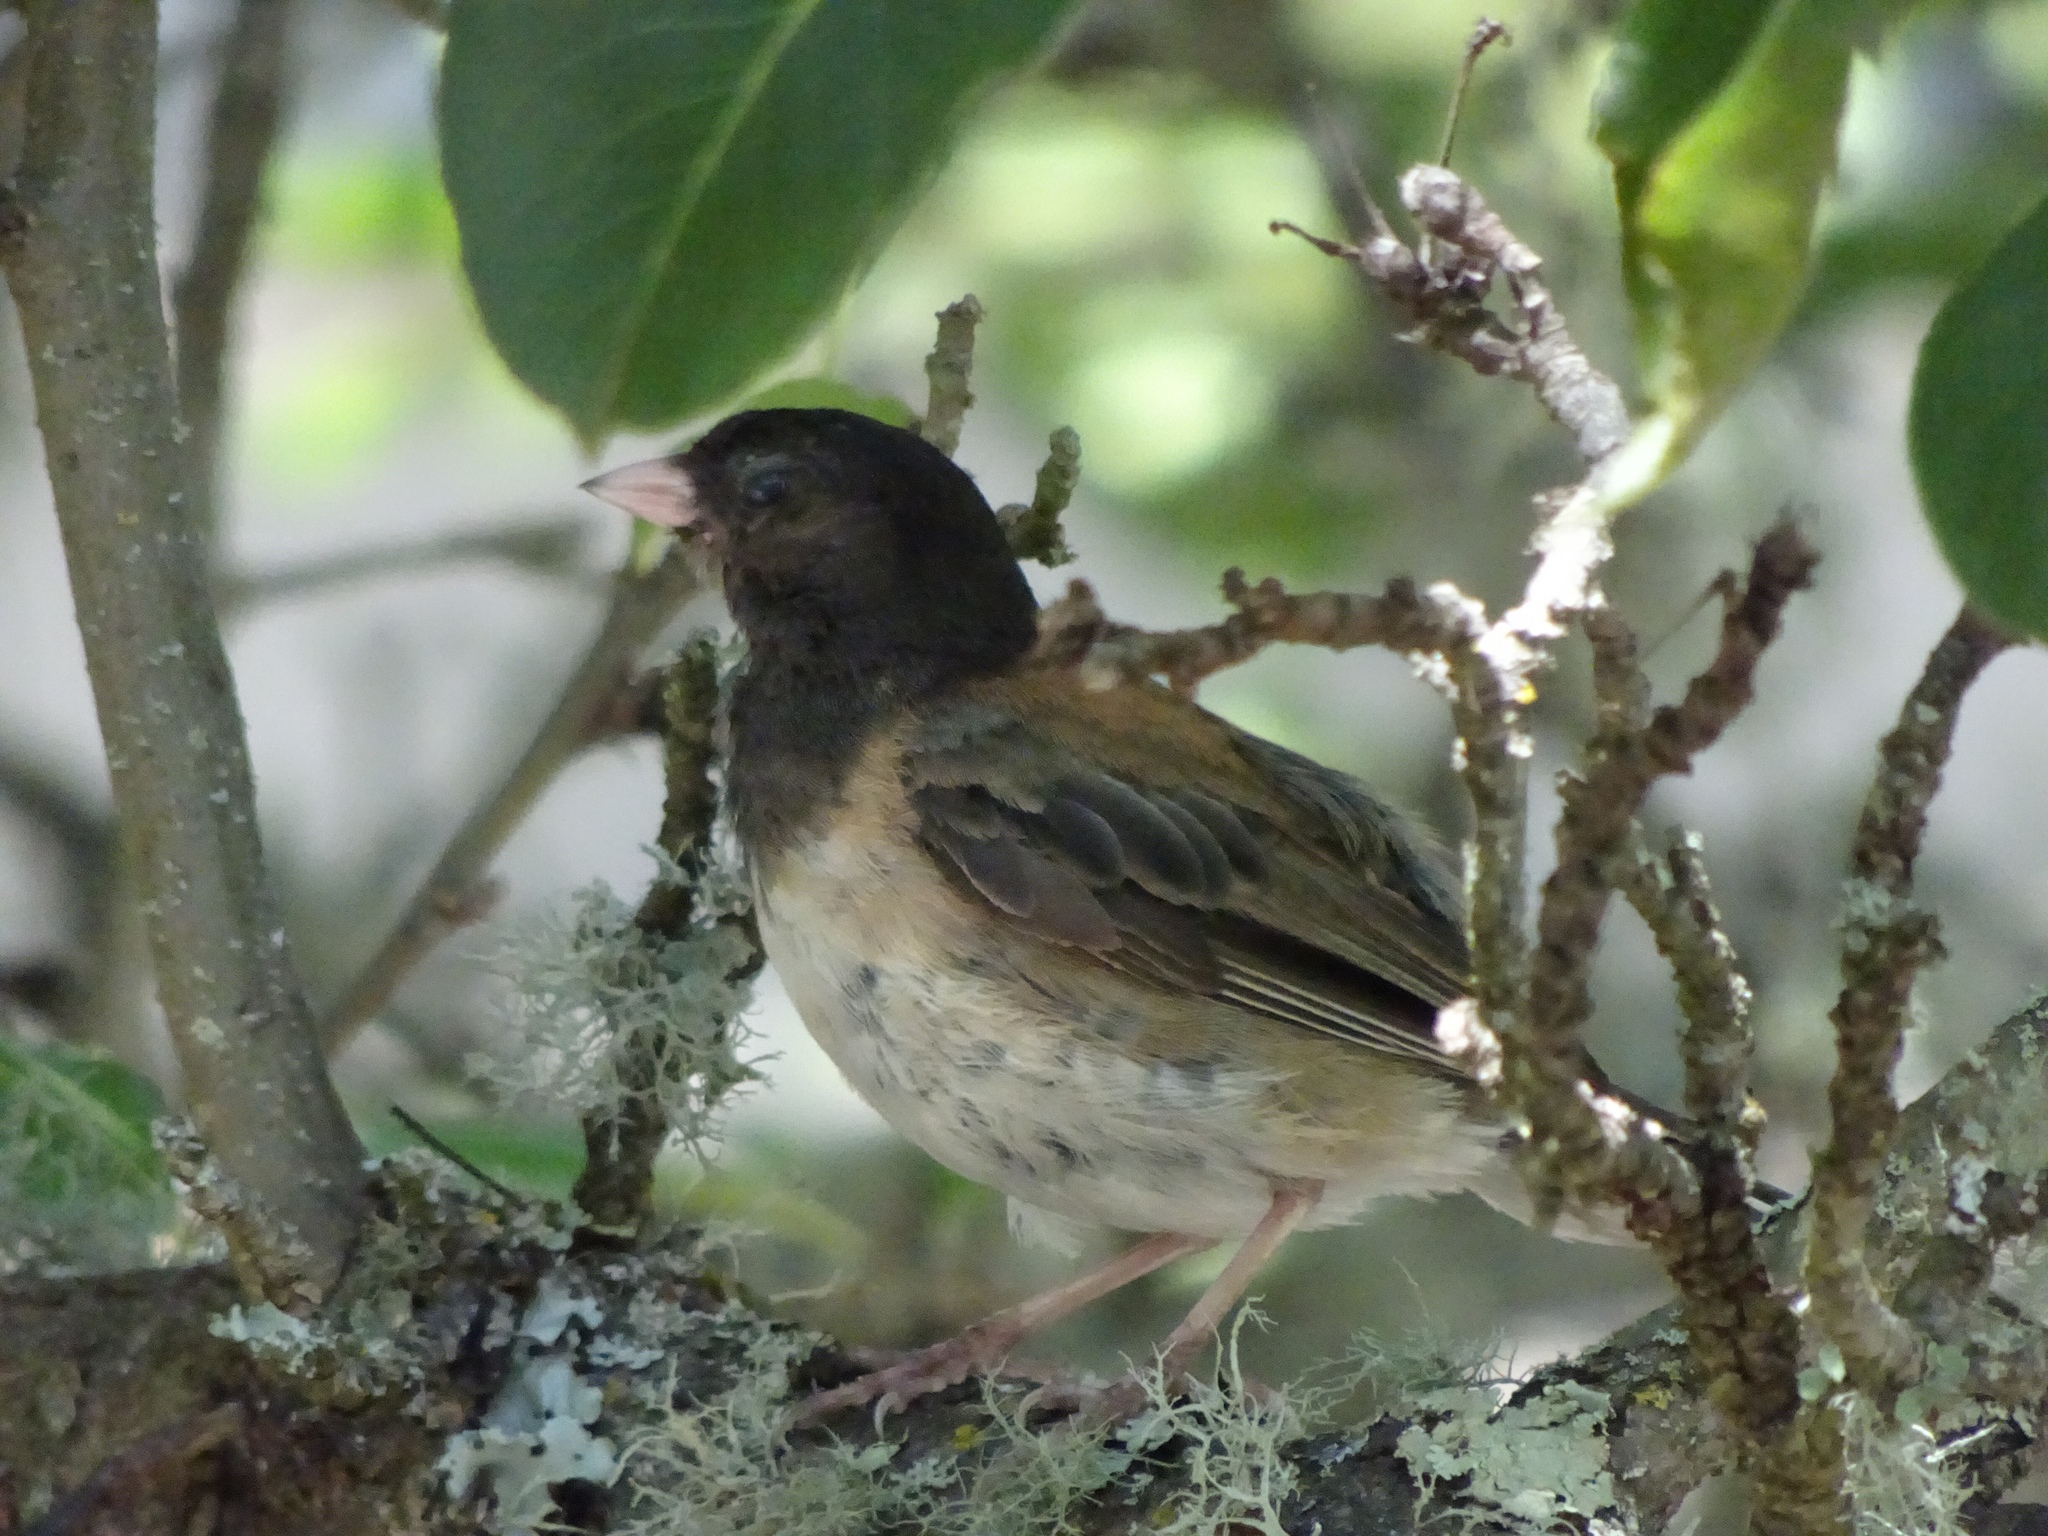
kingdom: Animalia
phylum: Chordata
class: Aves
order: Passeriformes
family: Passerellidae
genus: Junco
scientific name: Junco hyemalis
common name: Dark-eyed junco
